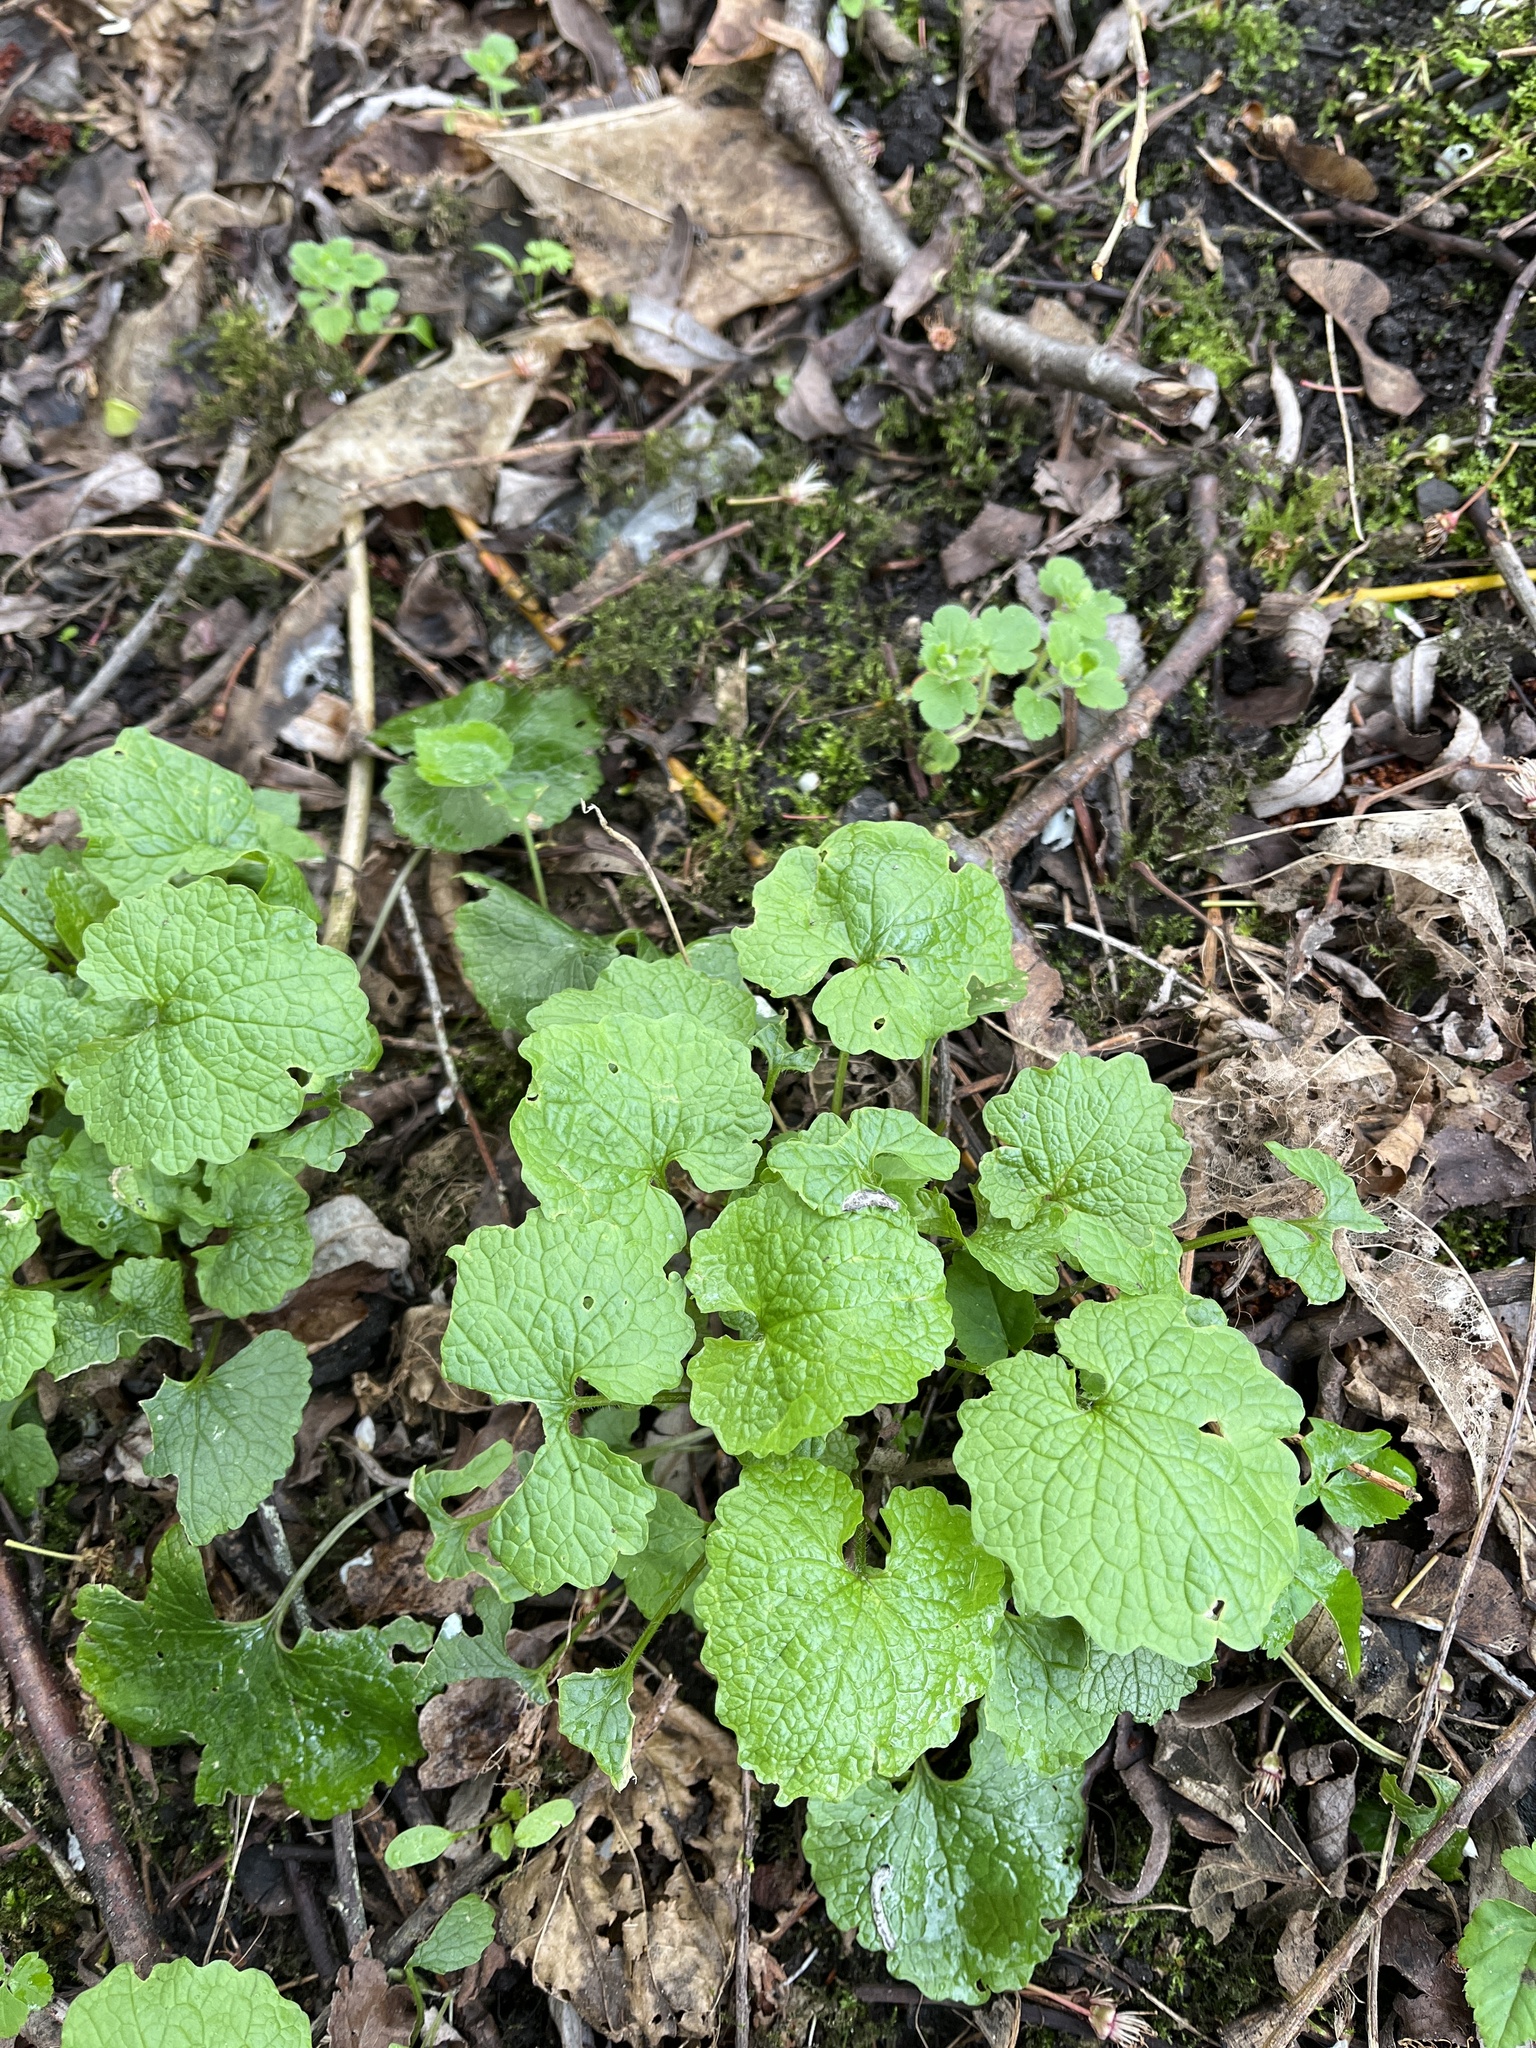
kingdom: Plantae
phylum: Tracheophyta
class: Magnoliopsida
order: Brassicales
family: Brassicaceae
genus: Alliaria
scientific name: Alliaria petiolata
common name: Garlic mustard
